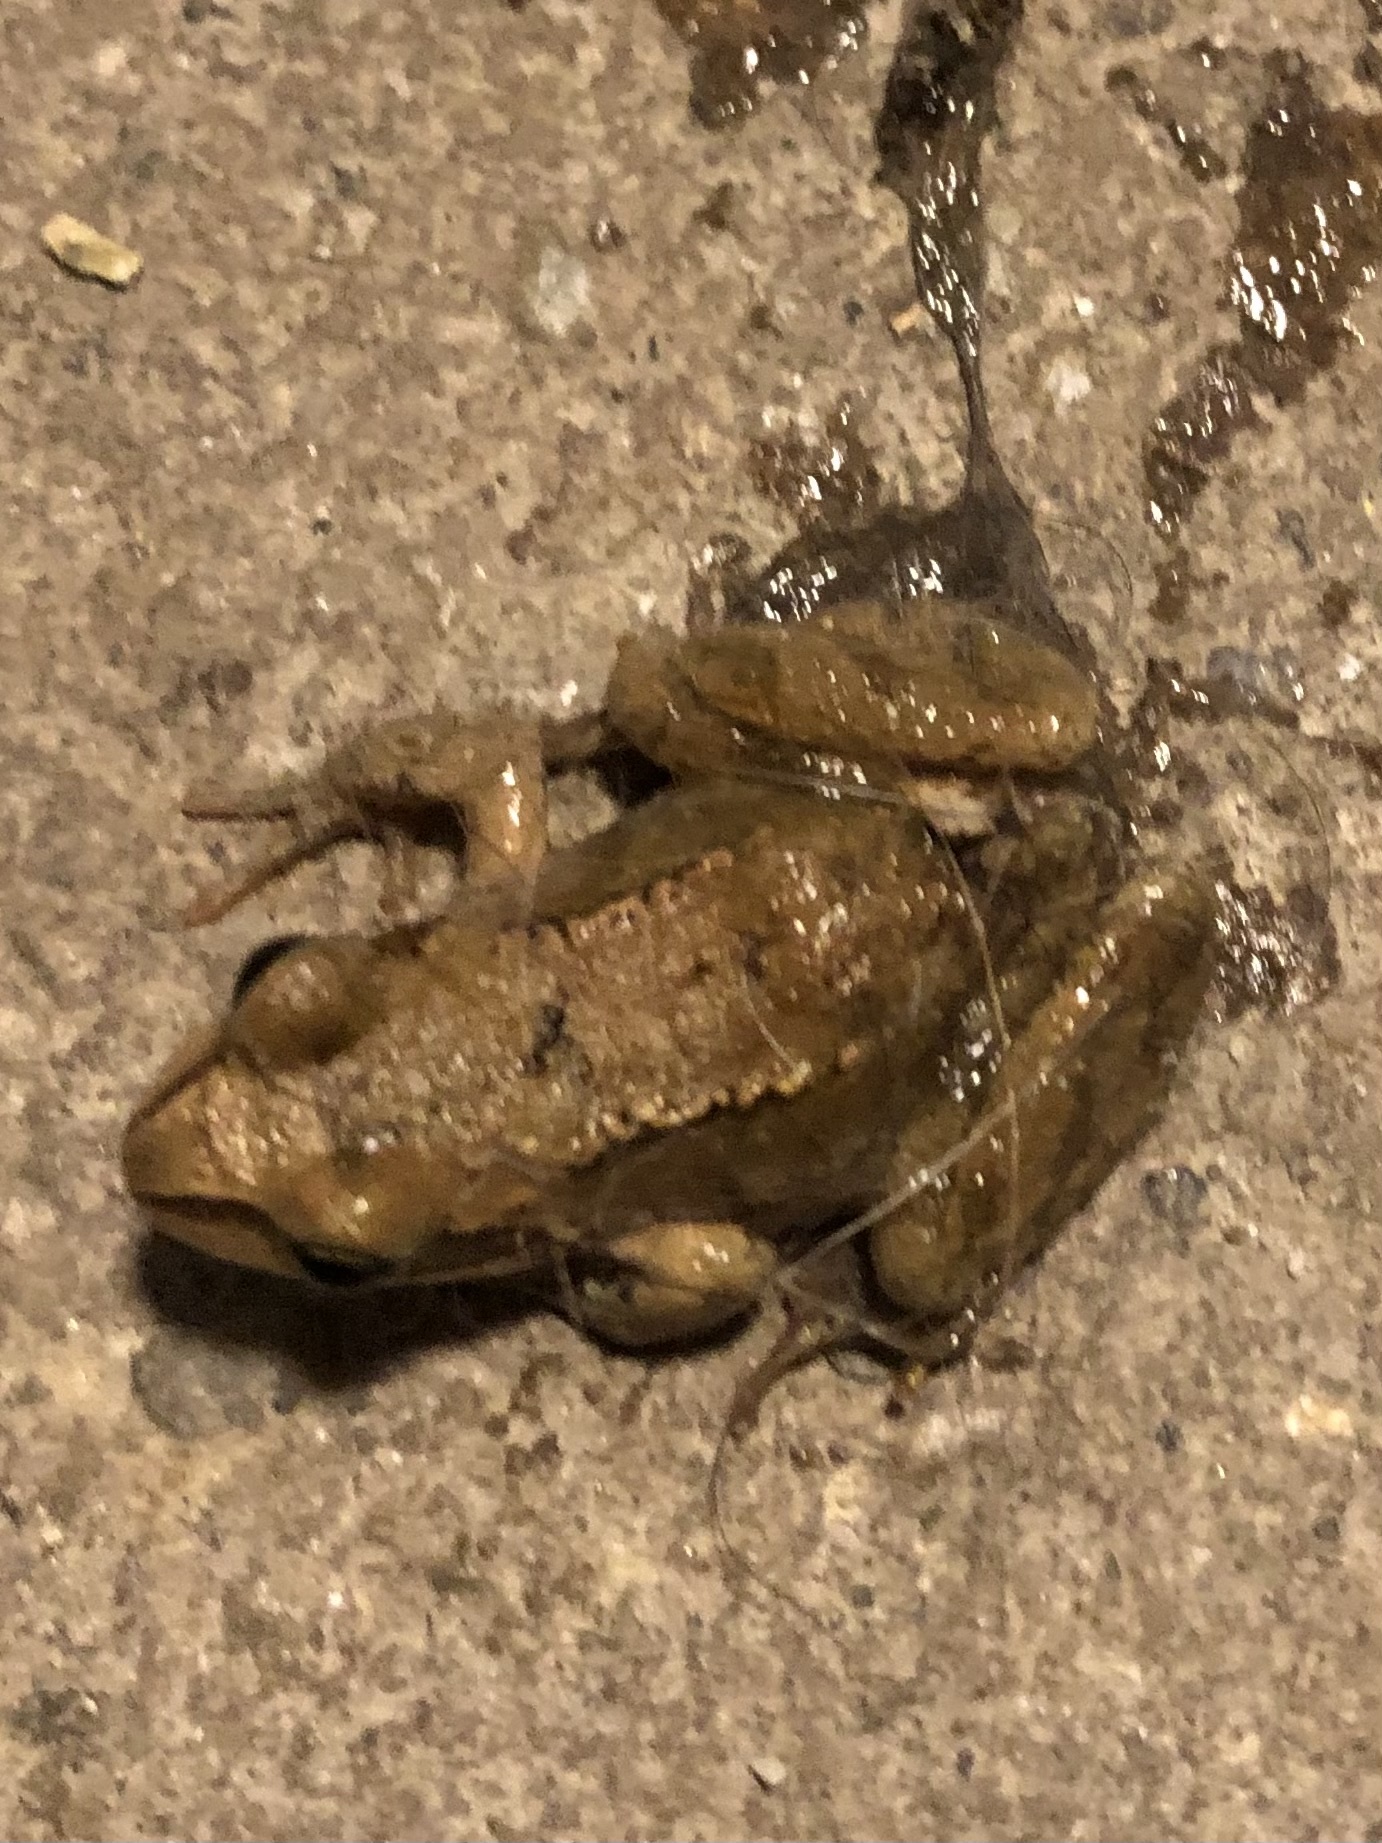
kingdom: Animalia
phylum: Chordata
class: Amphibia
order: Anura
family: Ranidae
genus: Rana
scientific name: Rana temporaria
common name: Common frog
